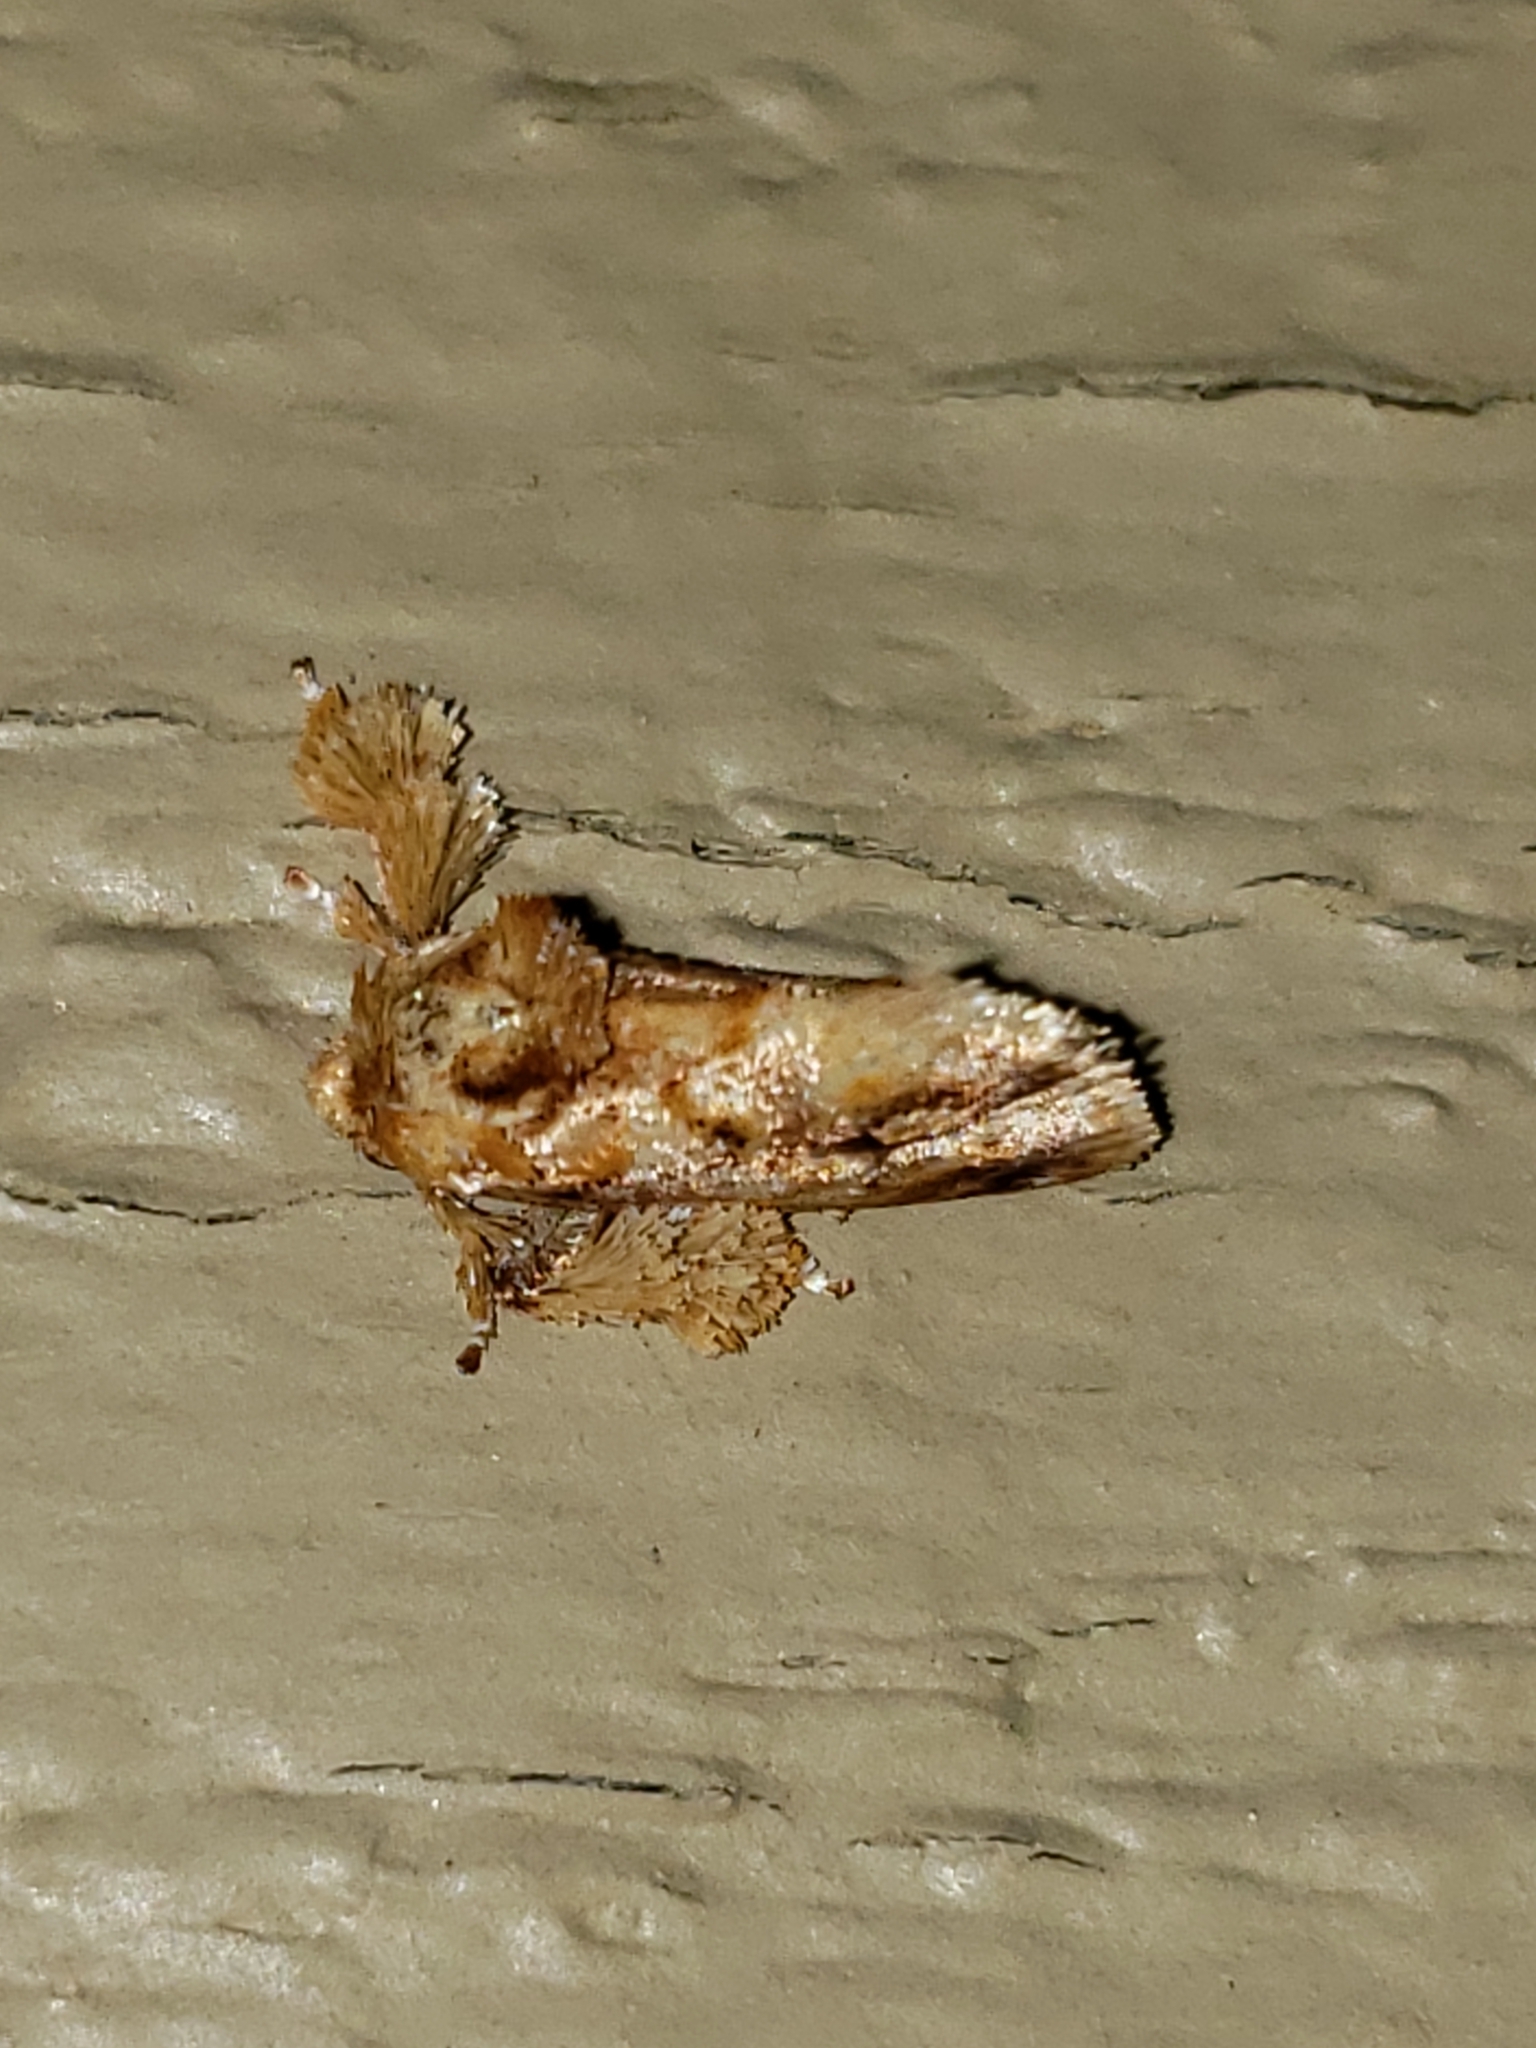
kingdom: Animalia
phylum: Arthropoda
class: Insecta
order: Lepidoptera
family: Limacodidae
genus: Isochaetes
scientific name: Isochaetes beutenmuelleri
